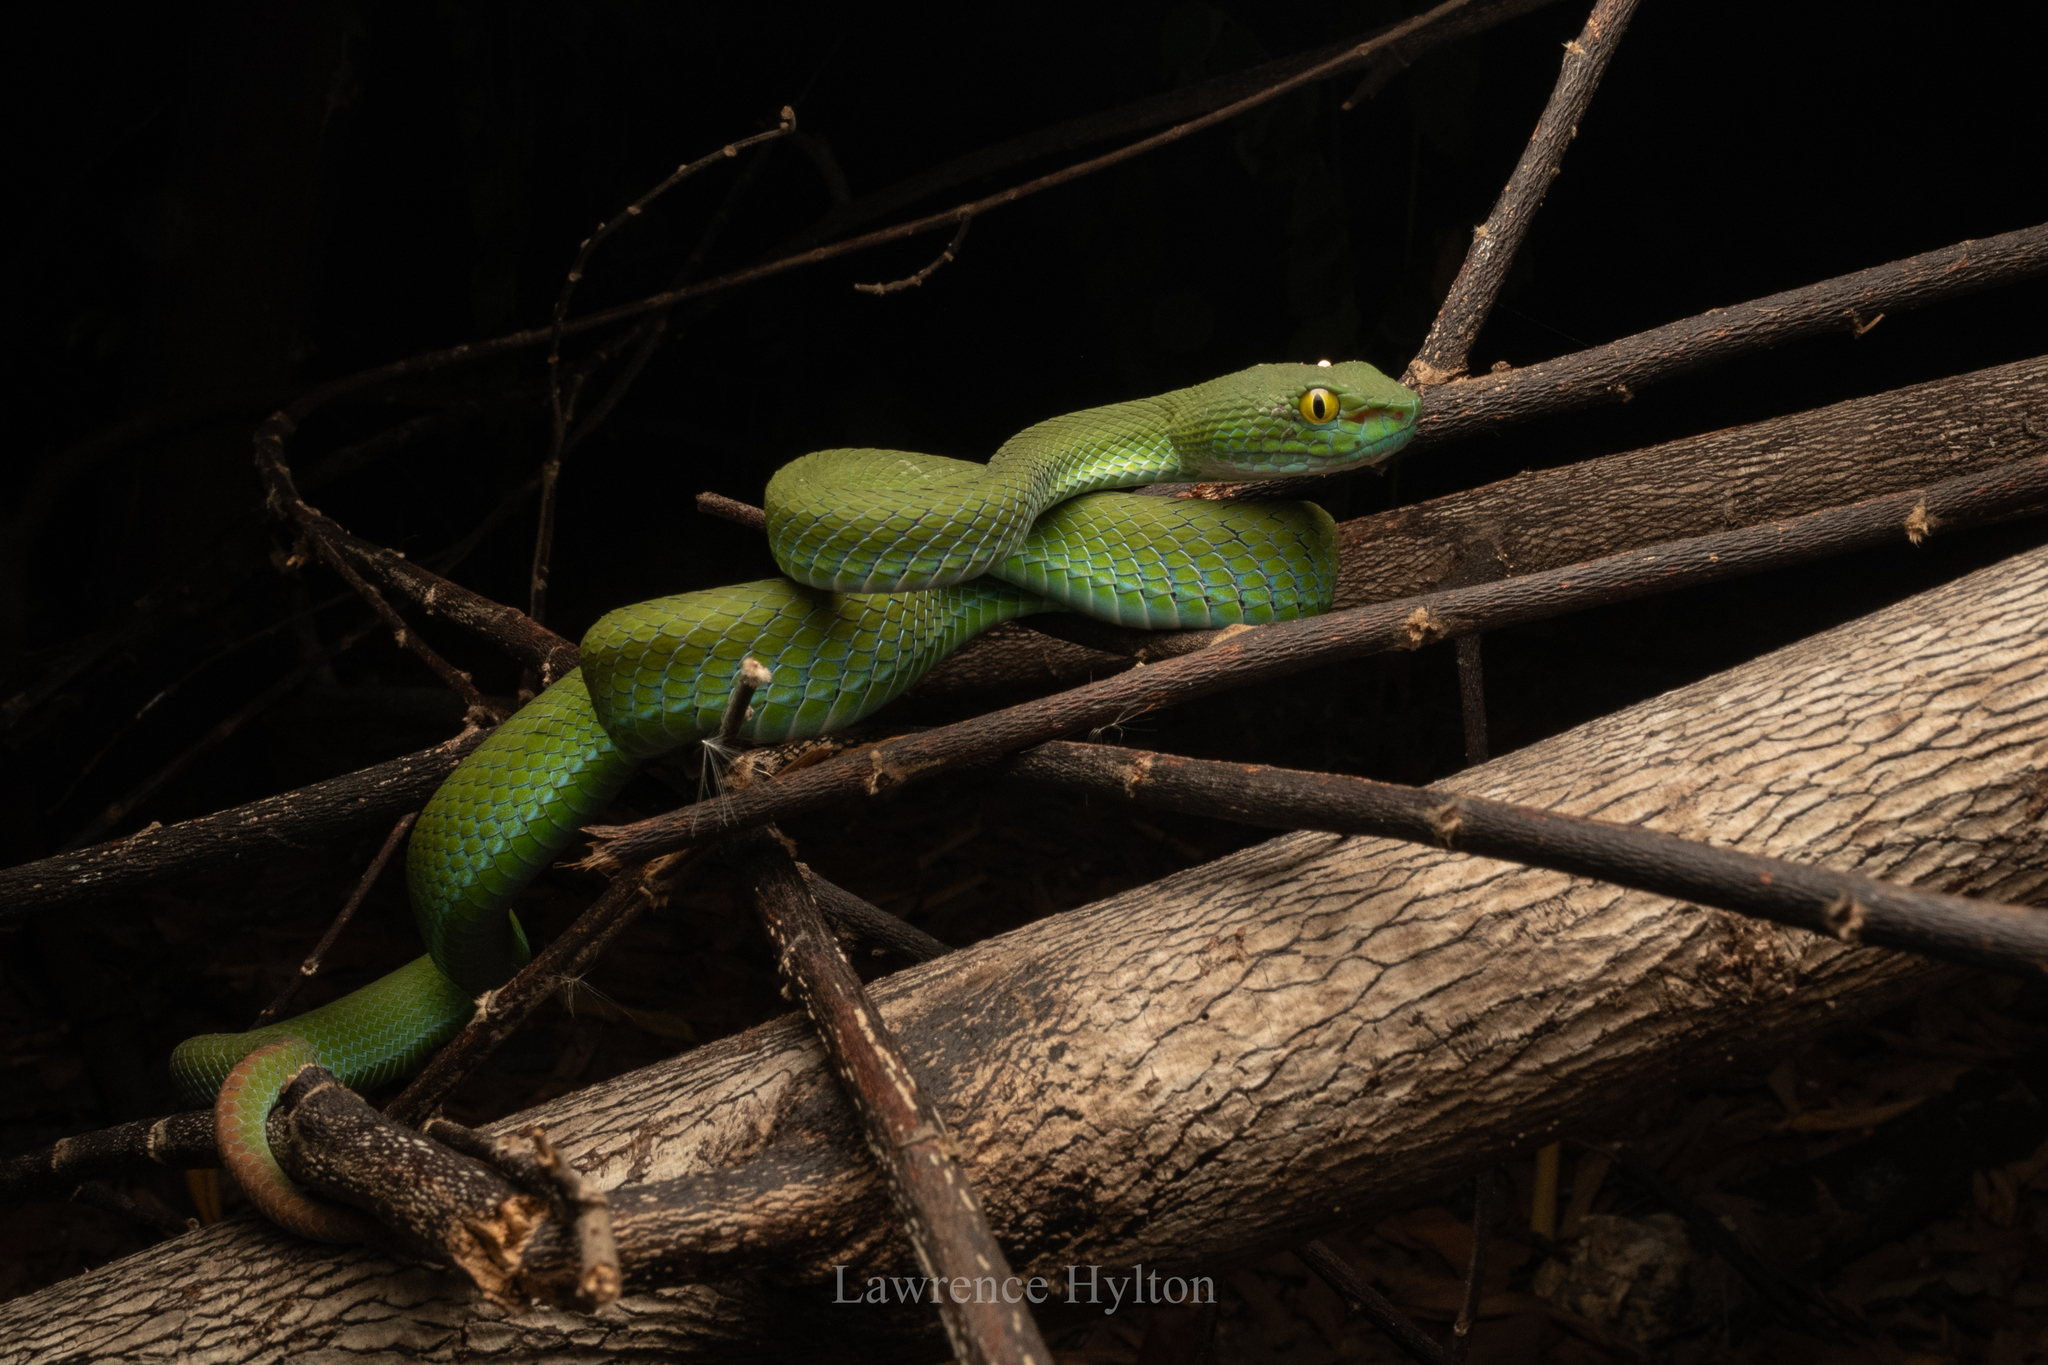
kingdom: Animalia
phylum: Chordata
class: Squamata
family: Viperidae
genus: Trimeresurus
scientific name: Trimeresurus macrops
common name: Kramer's pit viper
